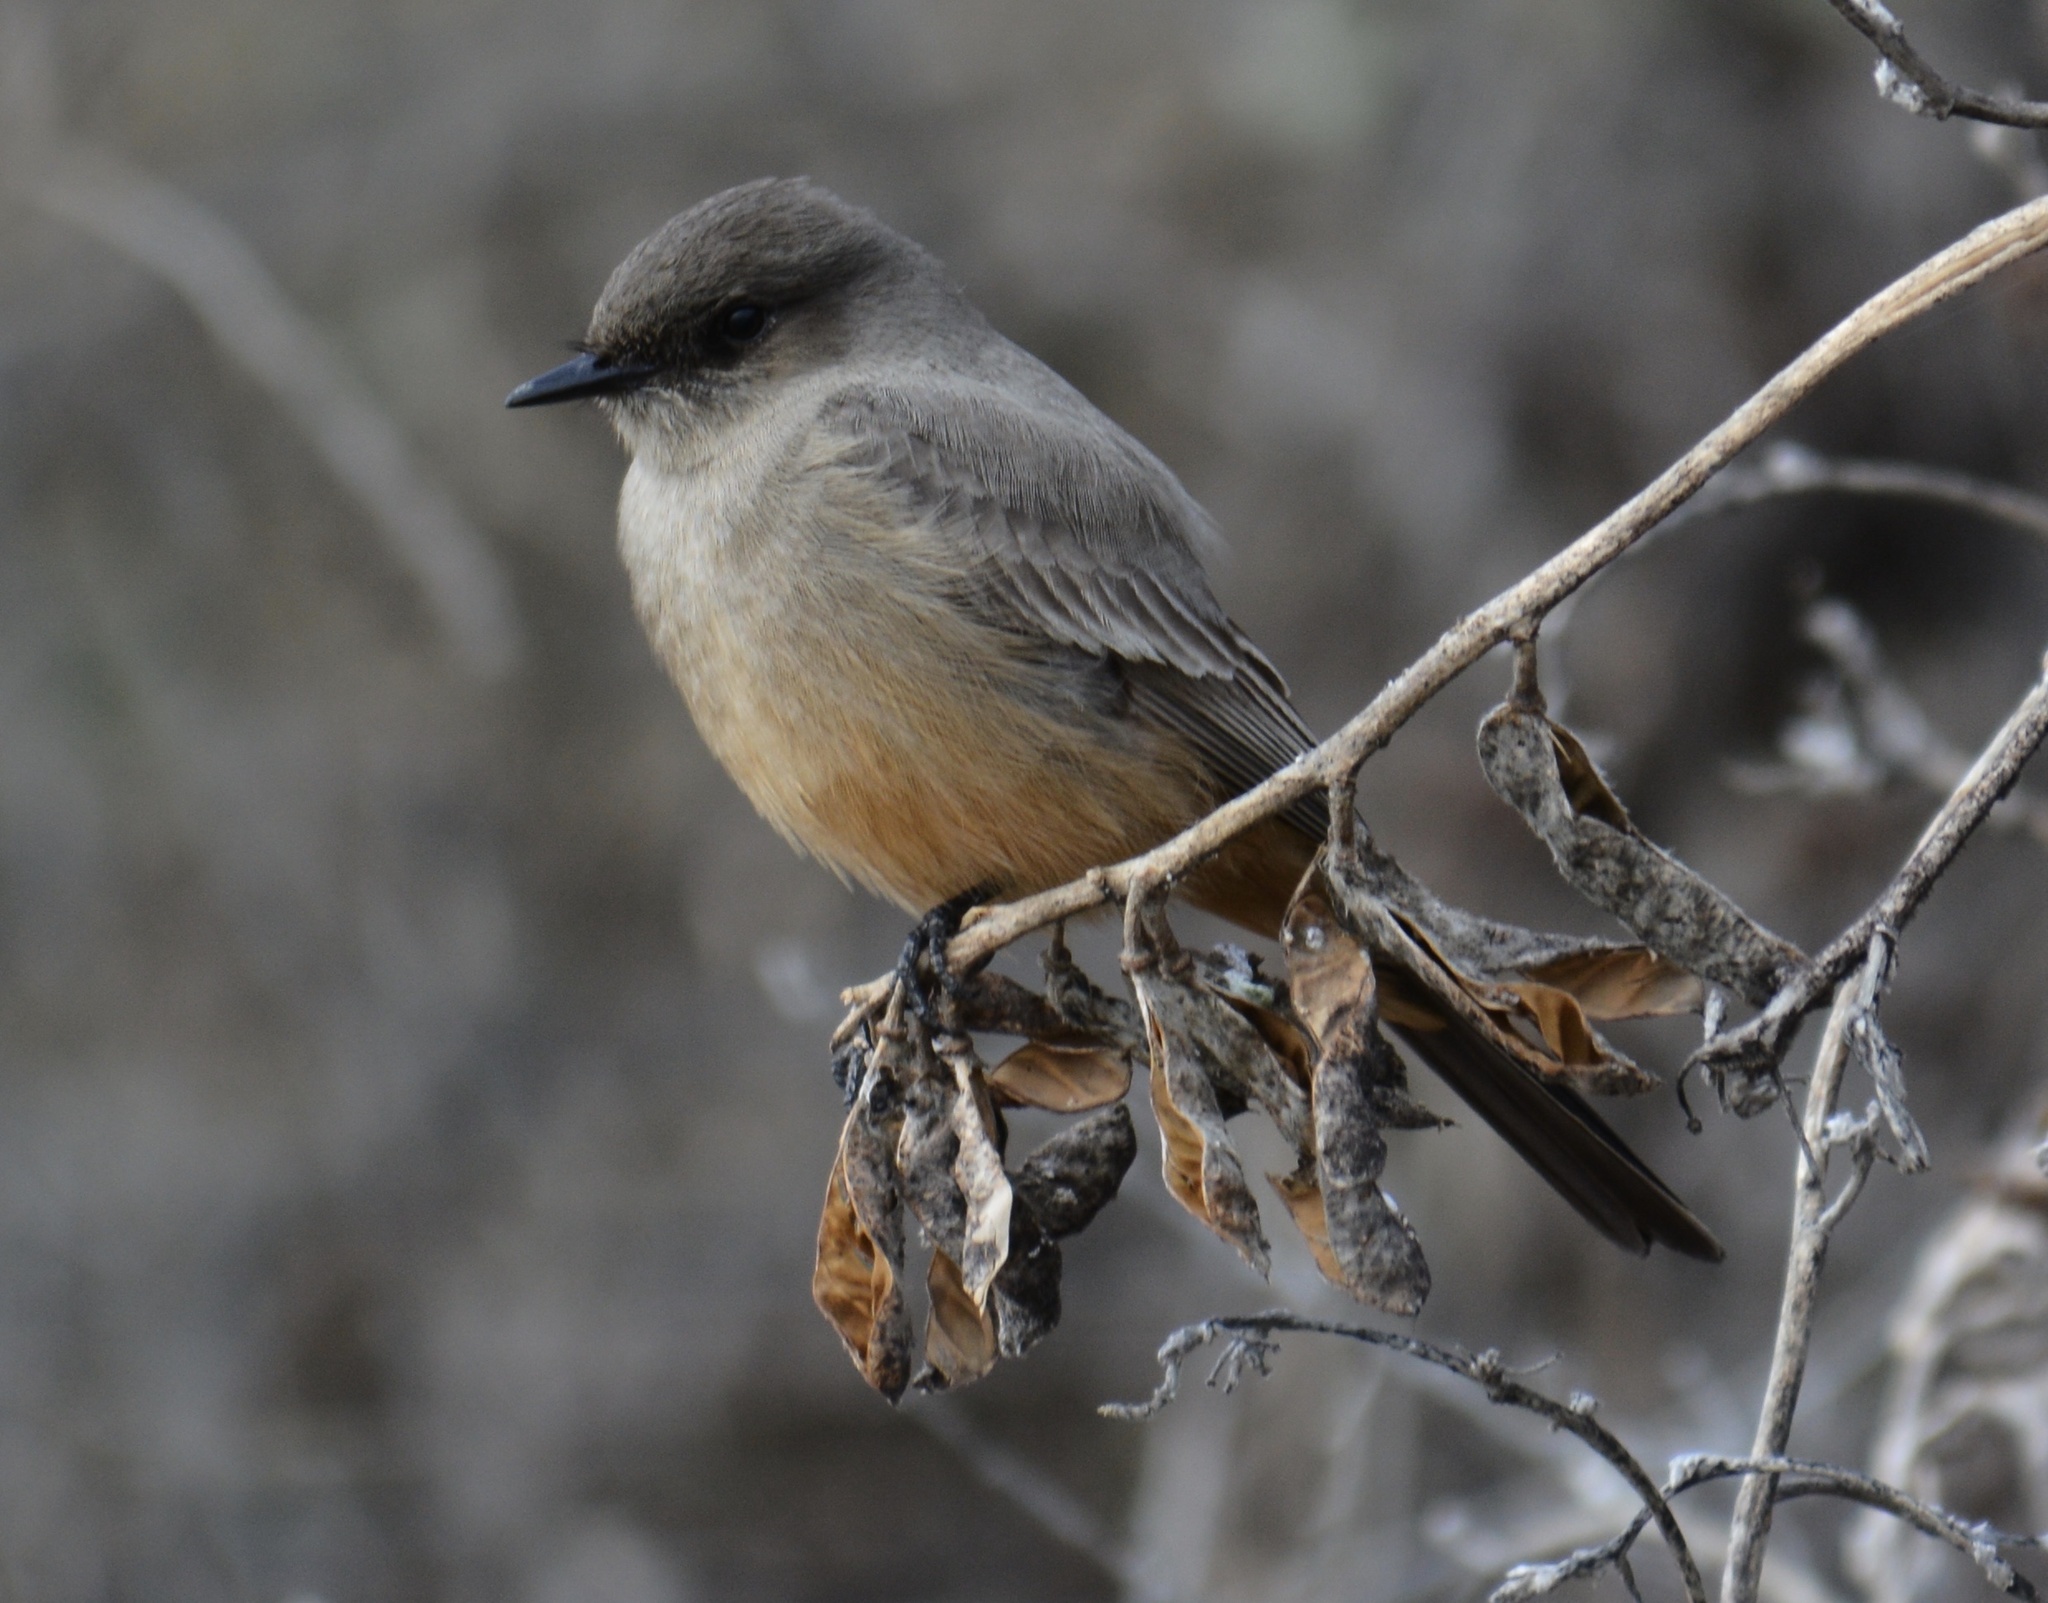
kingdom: Animalia
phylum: Chordata
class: Aves
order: Passeriformes
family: Tyrannidae
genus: Sayornis
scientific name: Sayornis saya
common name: Say's phoebe
